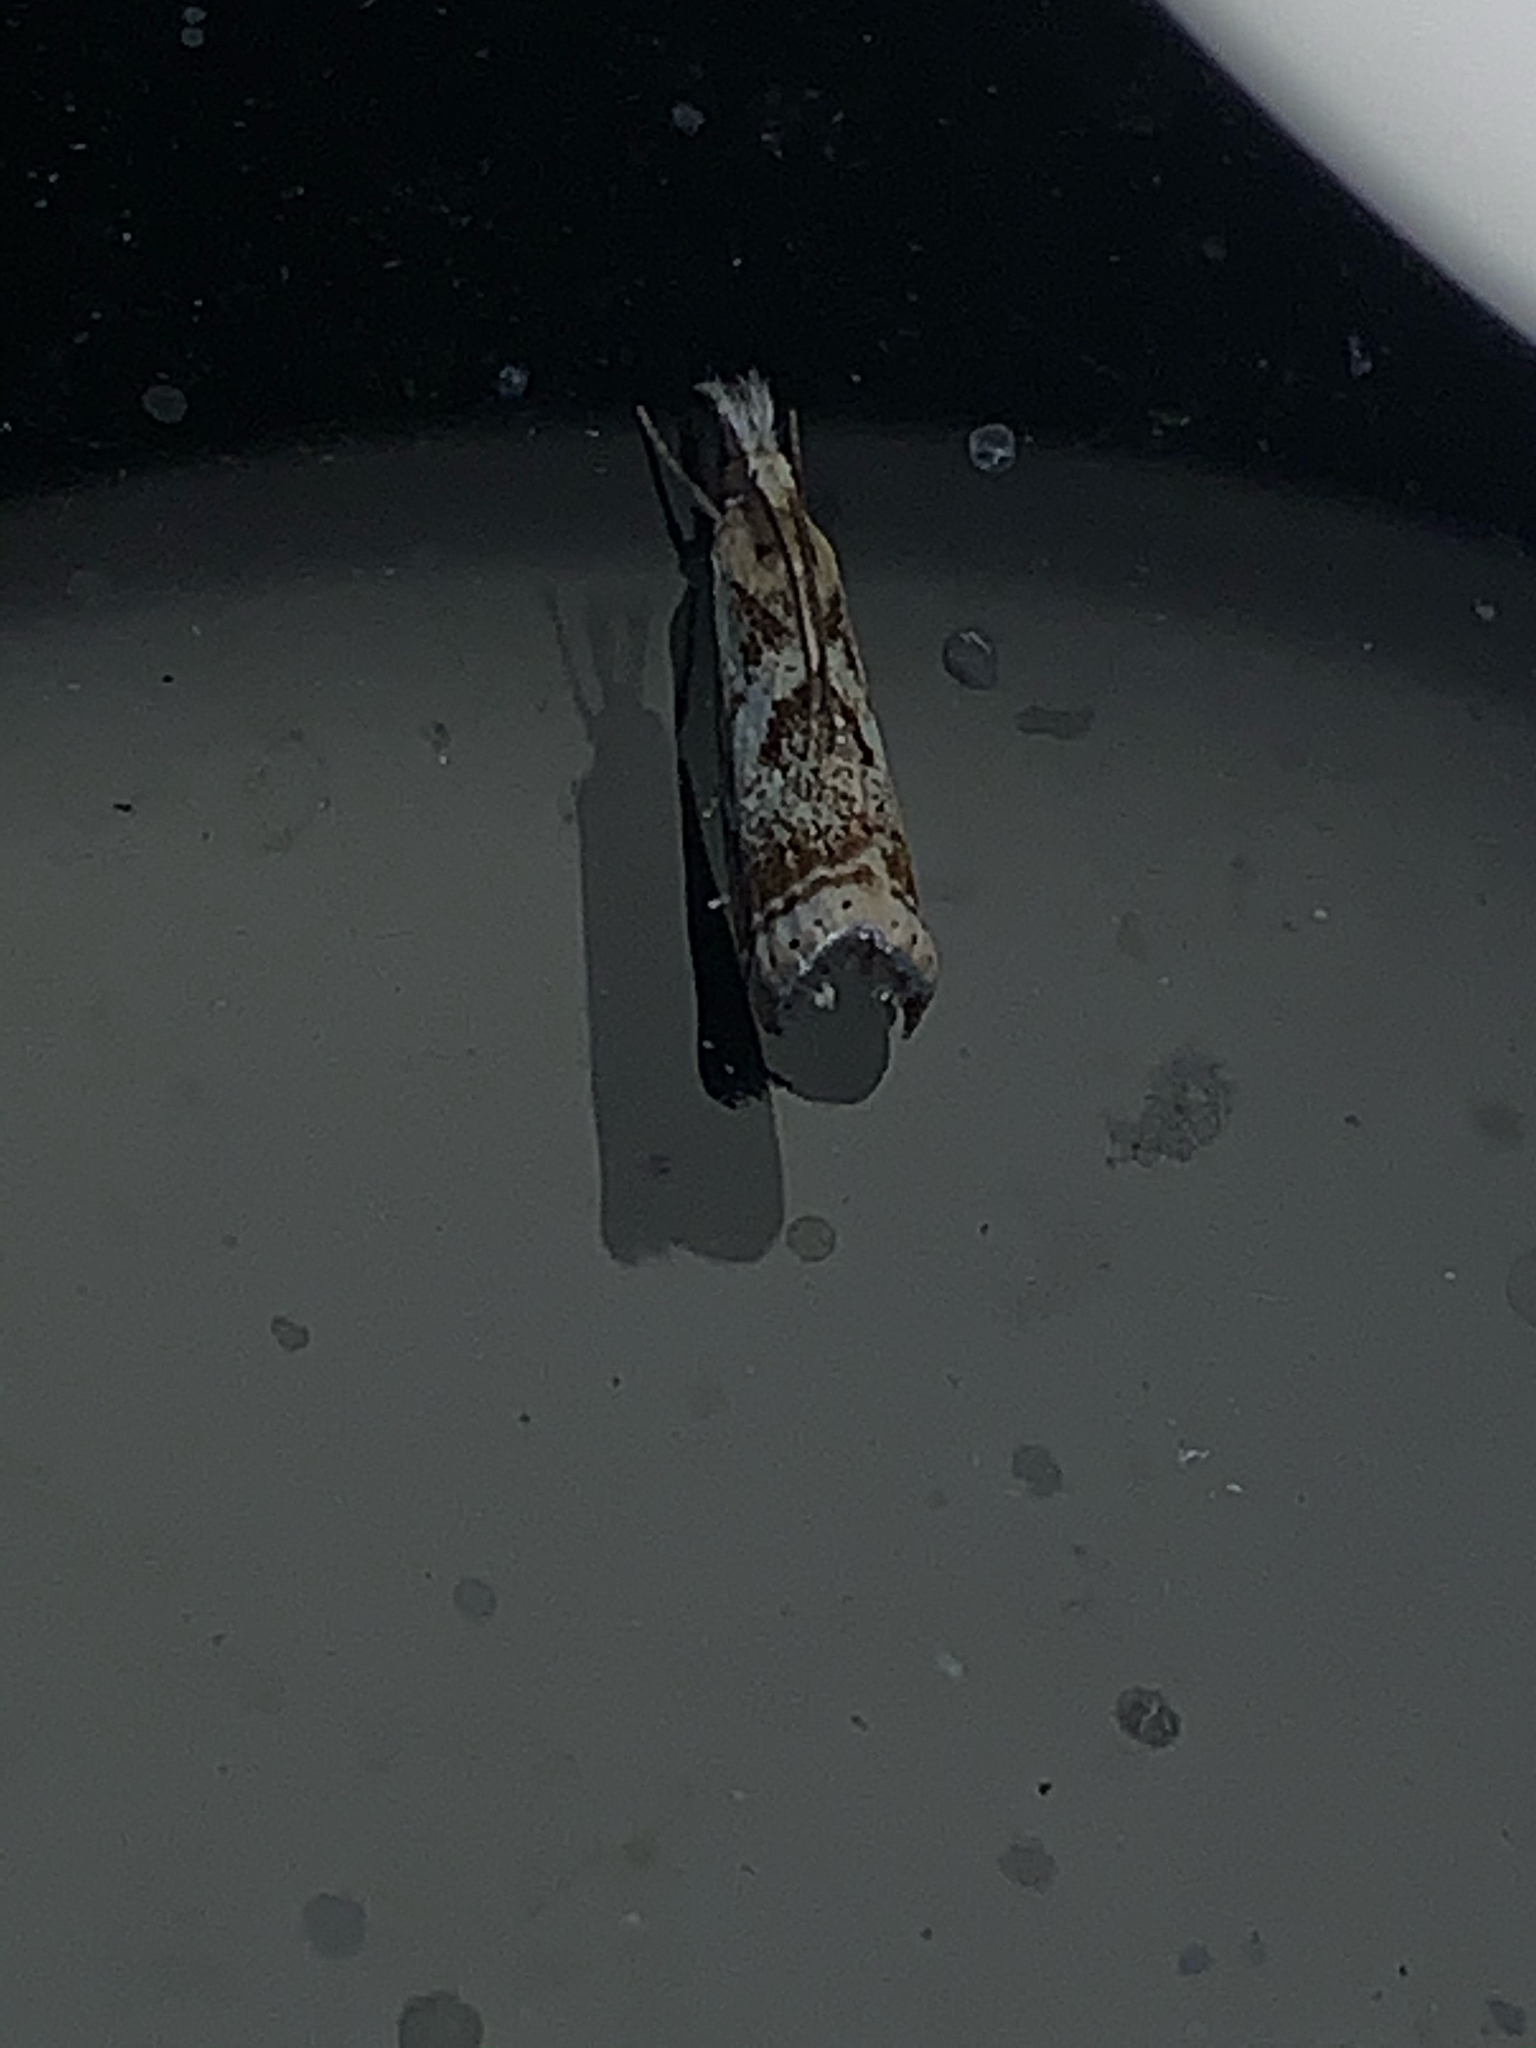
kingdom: Animalia
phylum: Arthropoda
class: Insecta
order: Lepidoptera
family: Crambidae
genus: Microcrambus
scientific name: Microcrambus elegans
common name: Elegant grass-veneer
